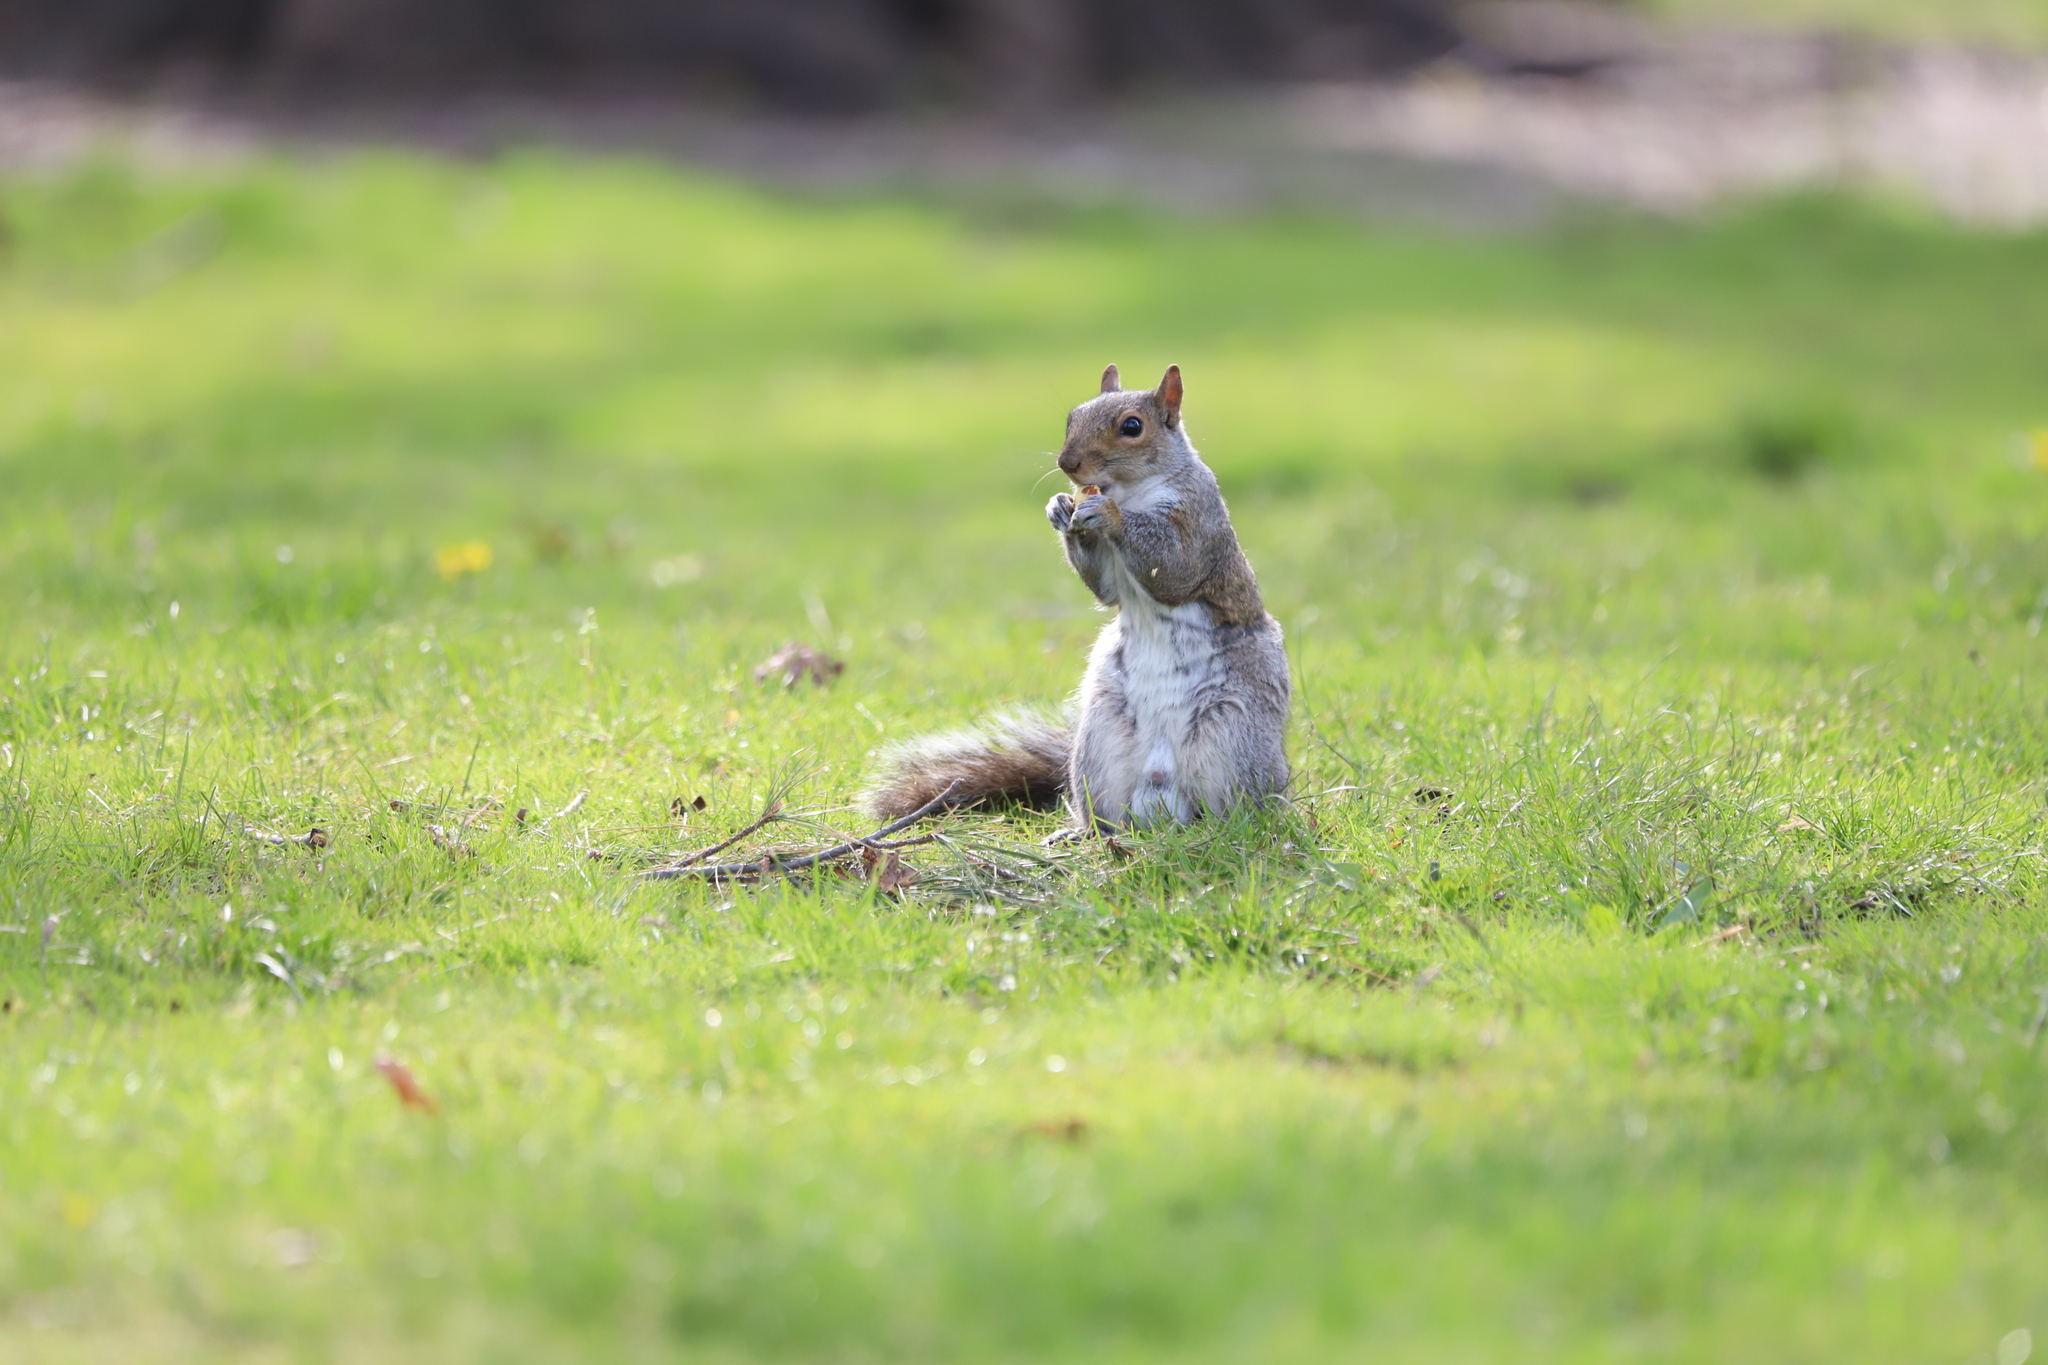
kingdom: Animalia
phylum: Chordata
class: Mammalia
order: Rodentia
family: Sciuridae
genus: Sciurus
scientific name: Sciurus carolinensis
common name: Eastern gray squirrel
